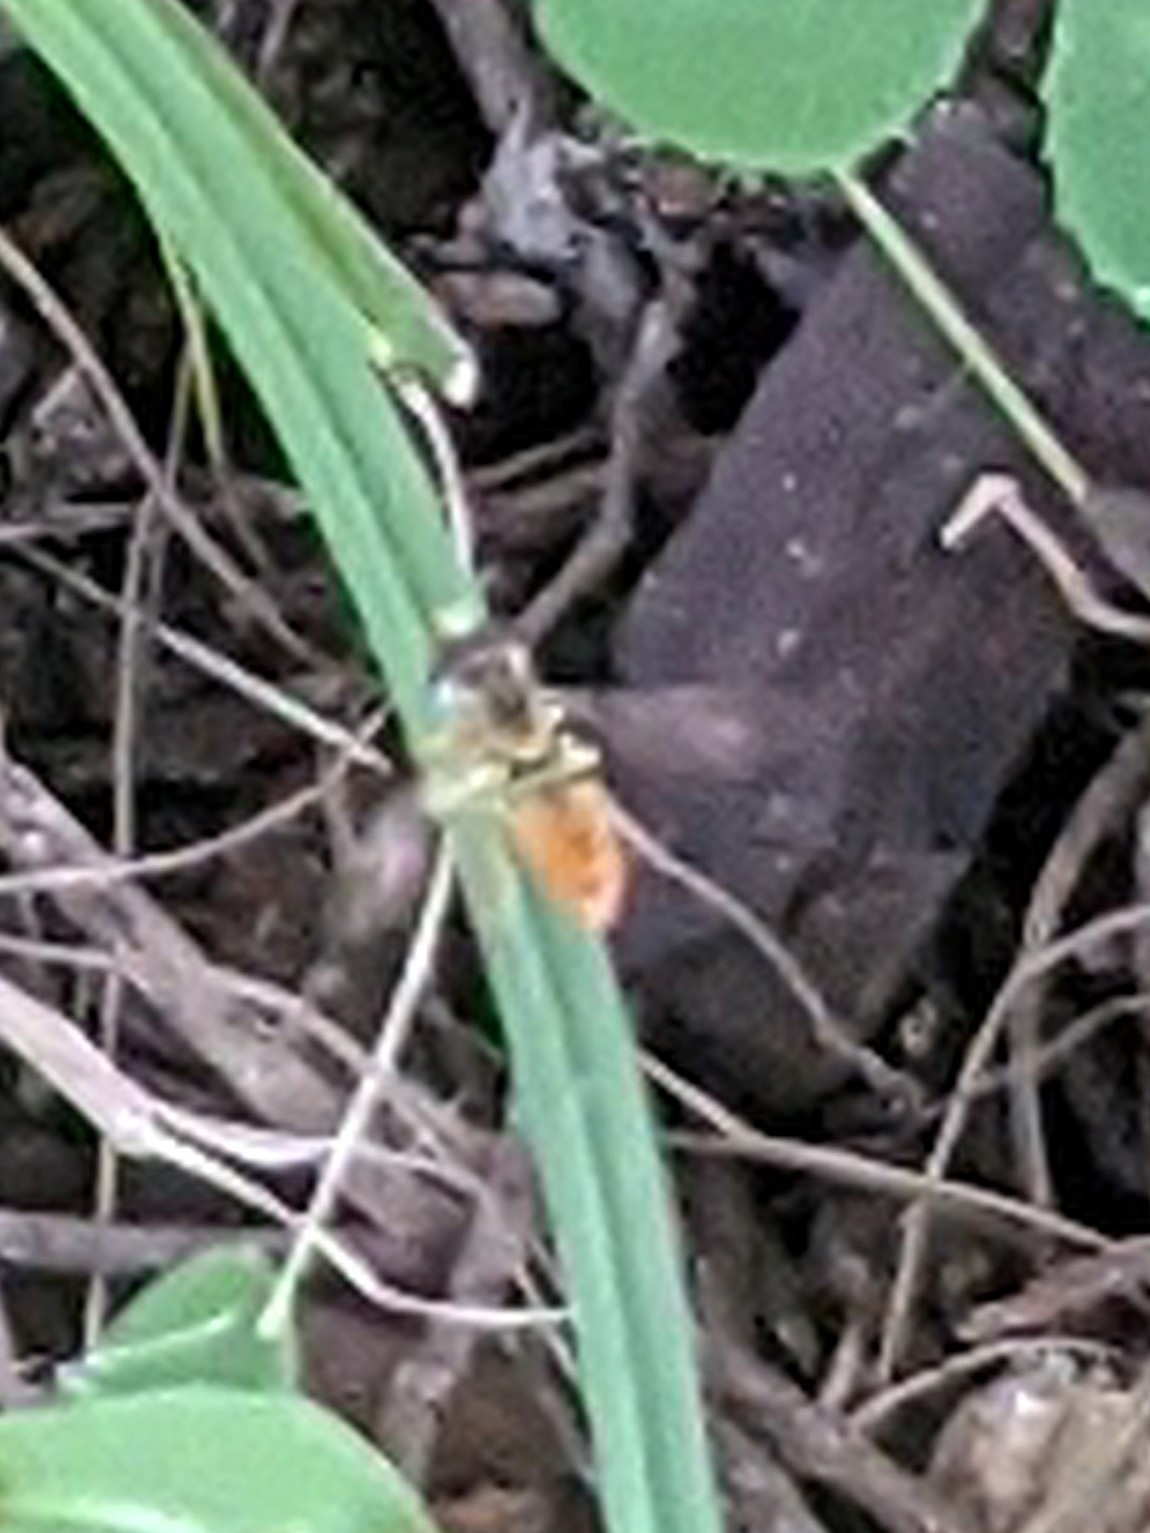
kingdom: Animalia
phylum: Arthropoda
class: Insecta
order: Diptera
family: Syrphidae
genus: Toxomerus
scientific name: Toxomerus
